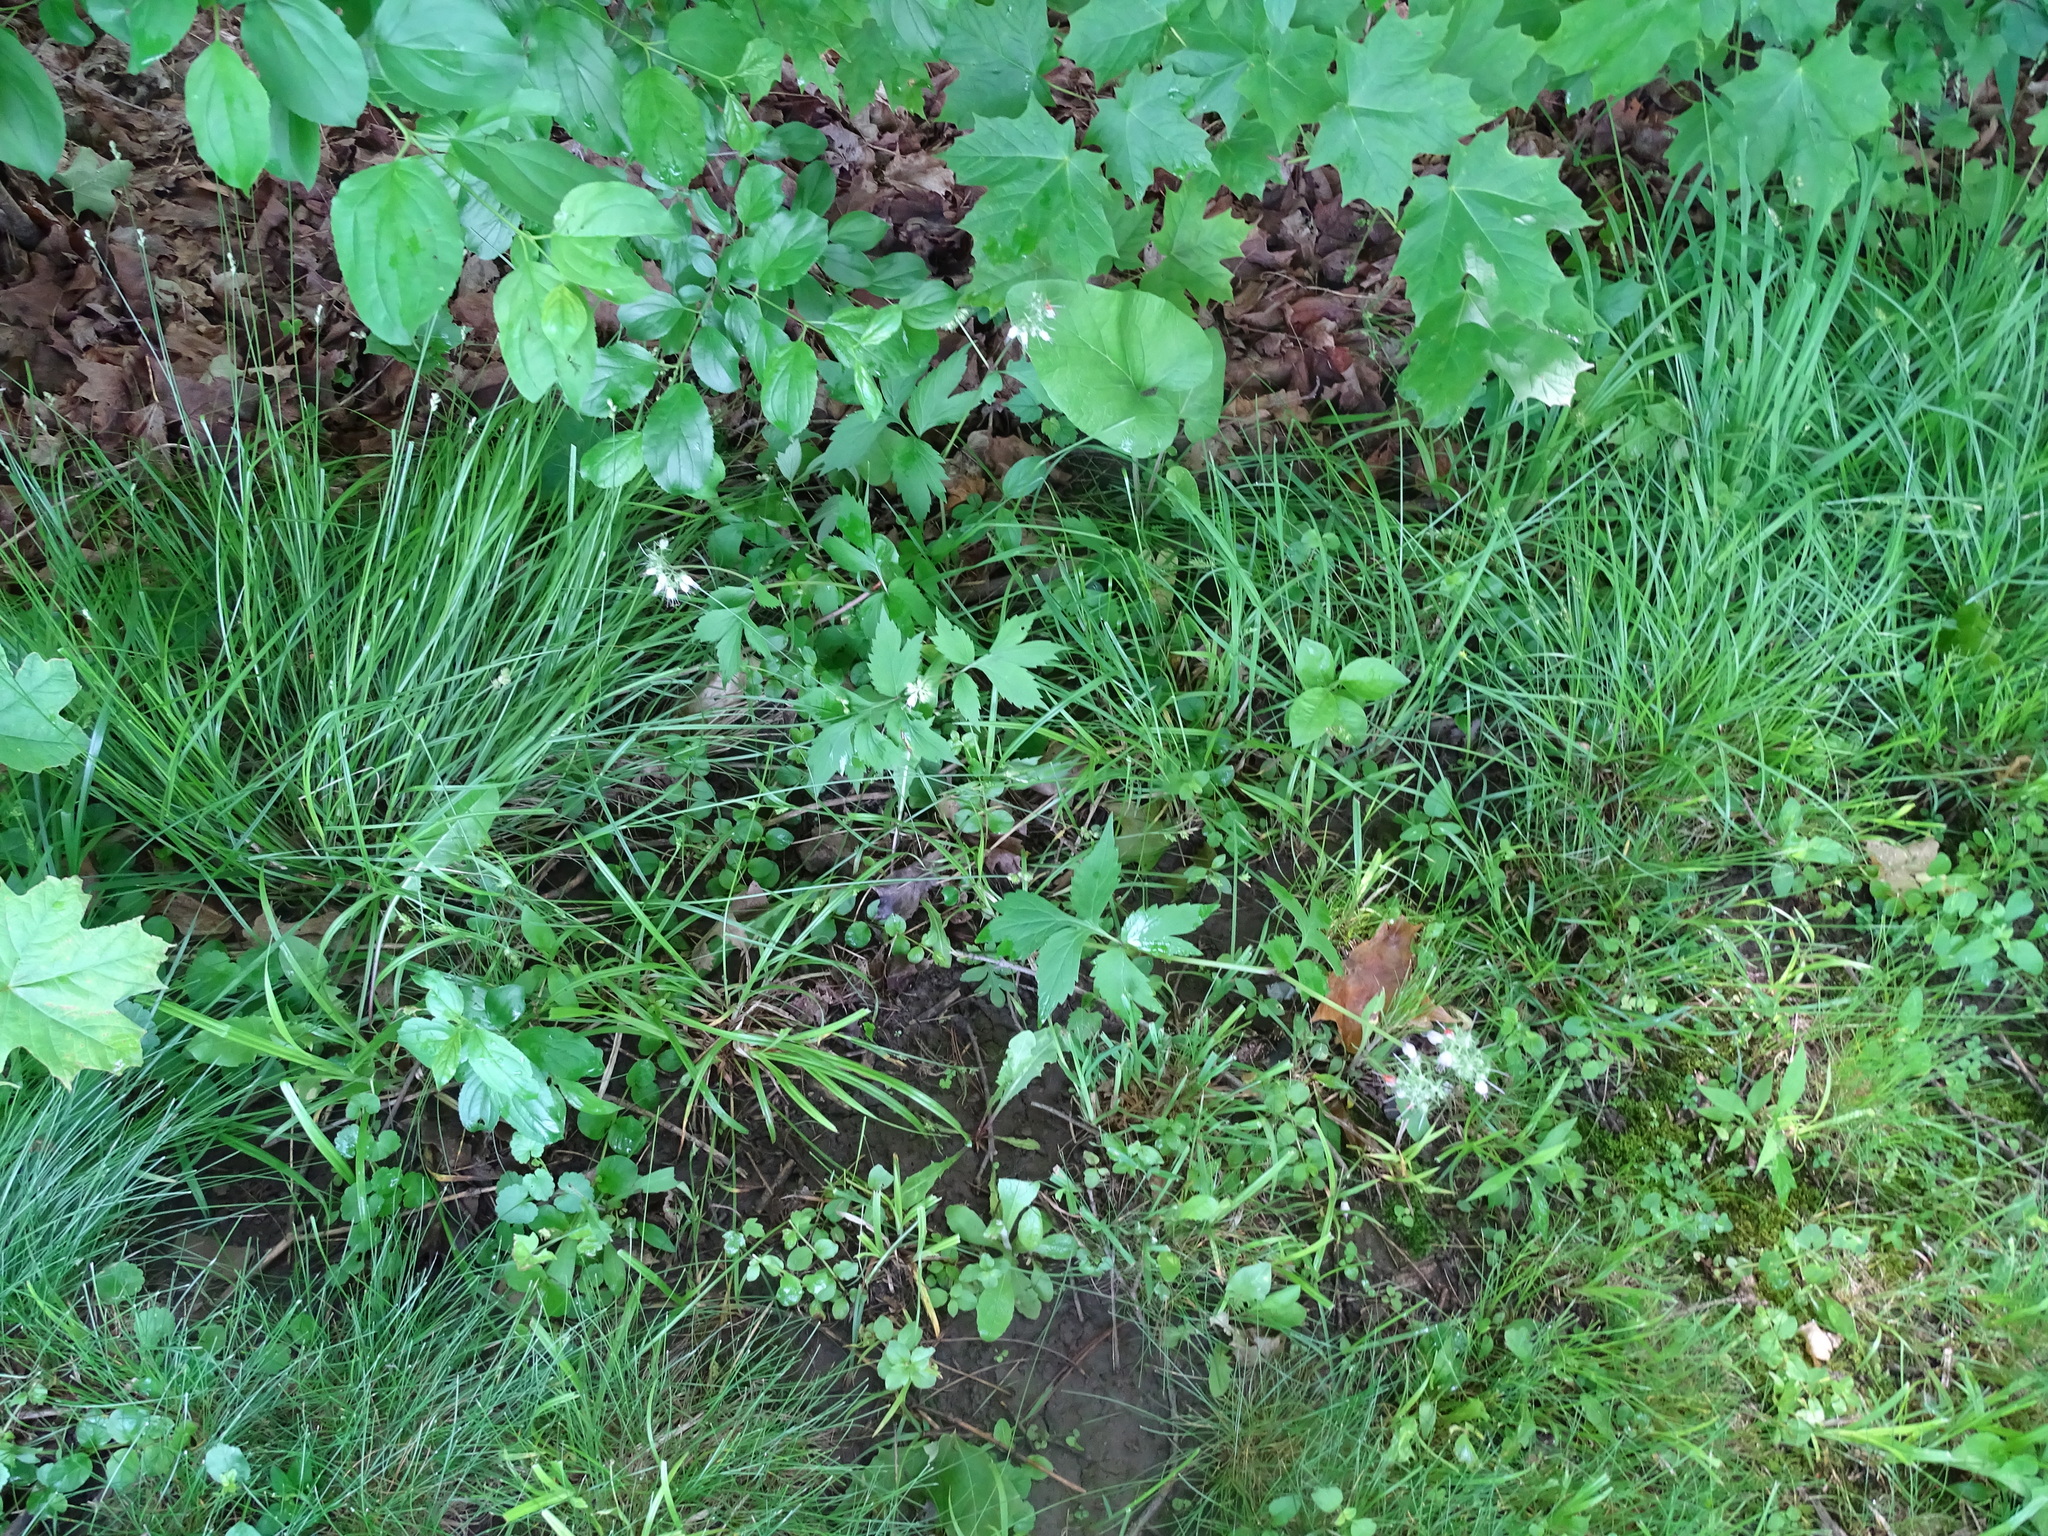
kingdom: Plantae
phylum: Tracheophyta
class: Magnoliopsida
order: Boraginales
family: Hydrophyllaceae
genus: Hydrophyllum
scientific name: Hydrophyllum virginianum
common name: Virginia waterleaf
